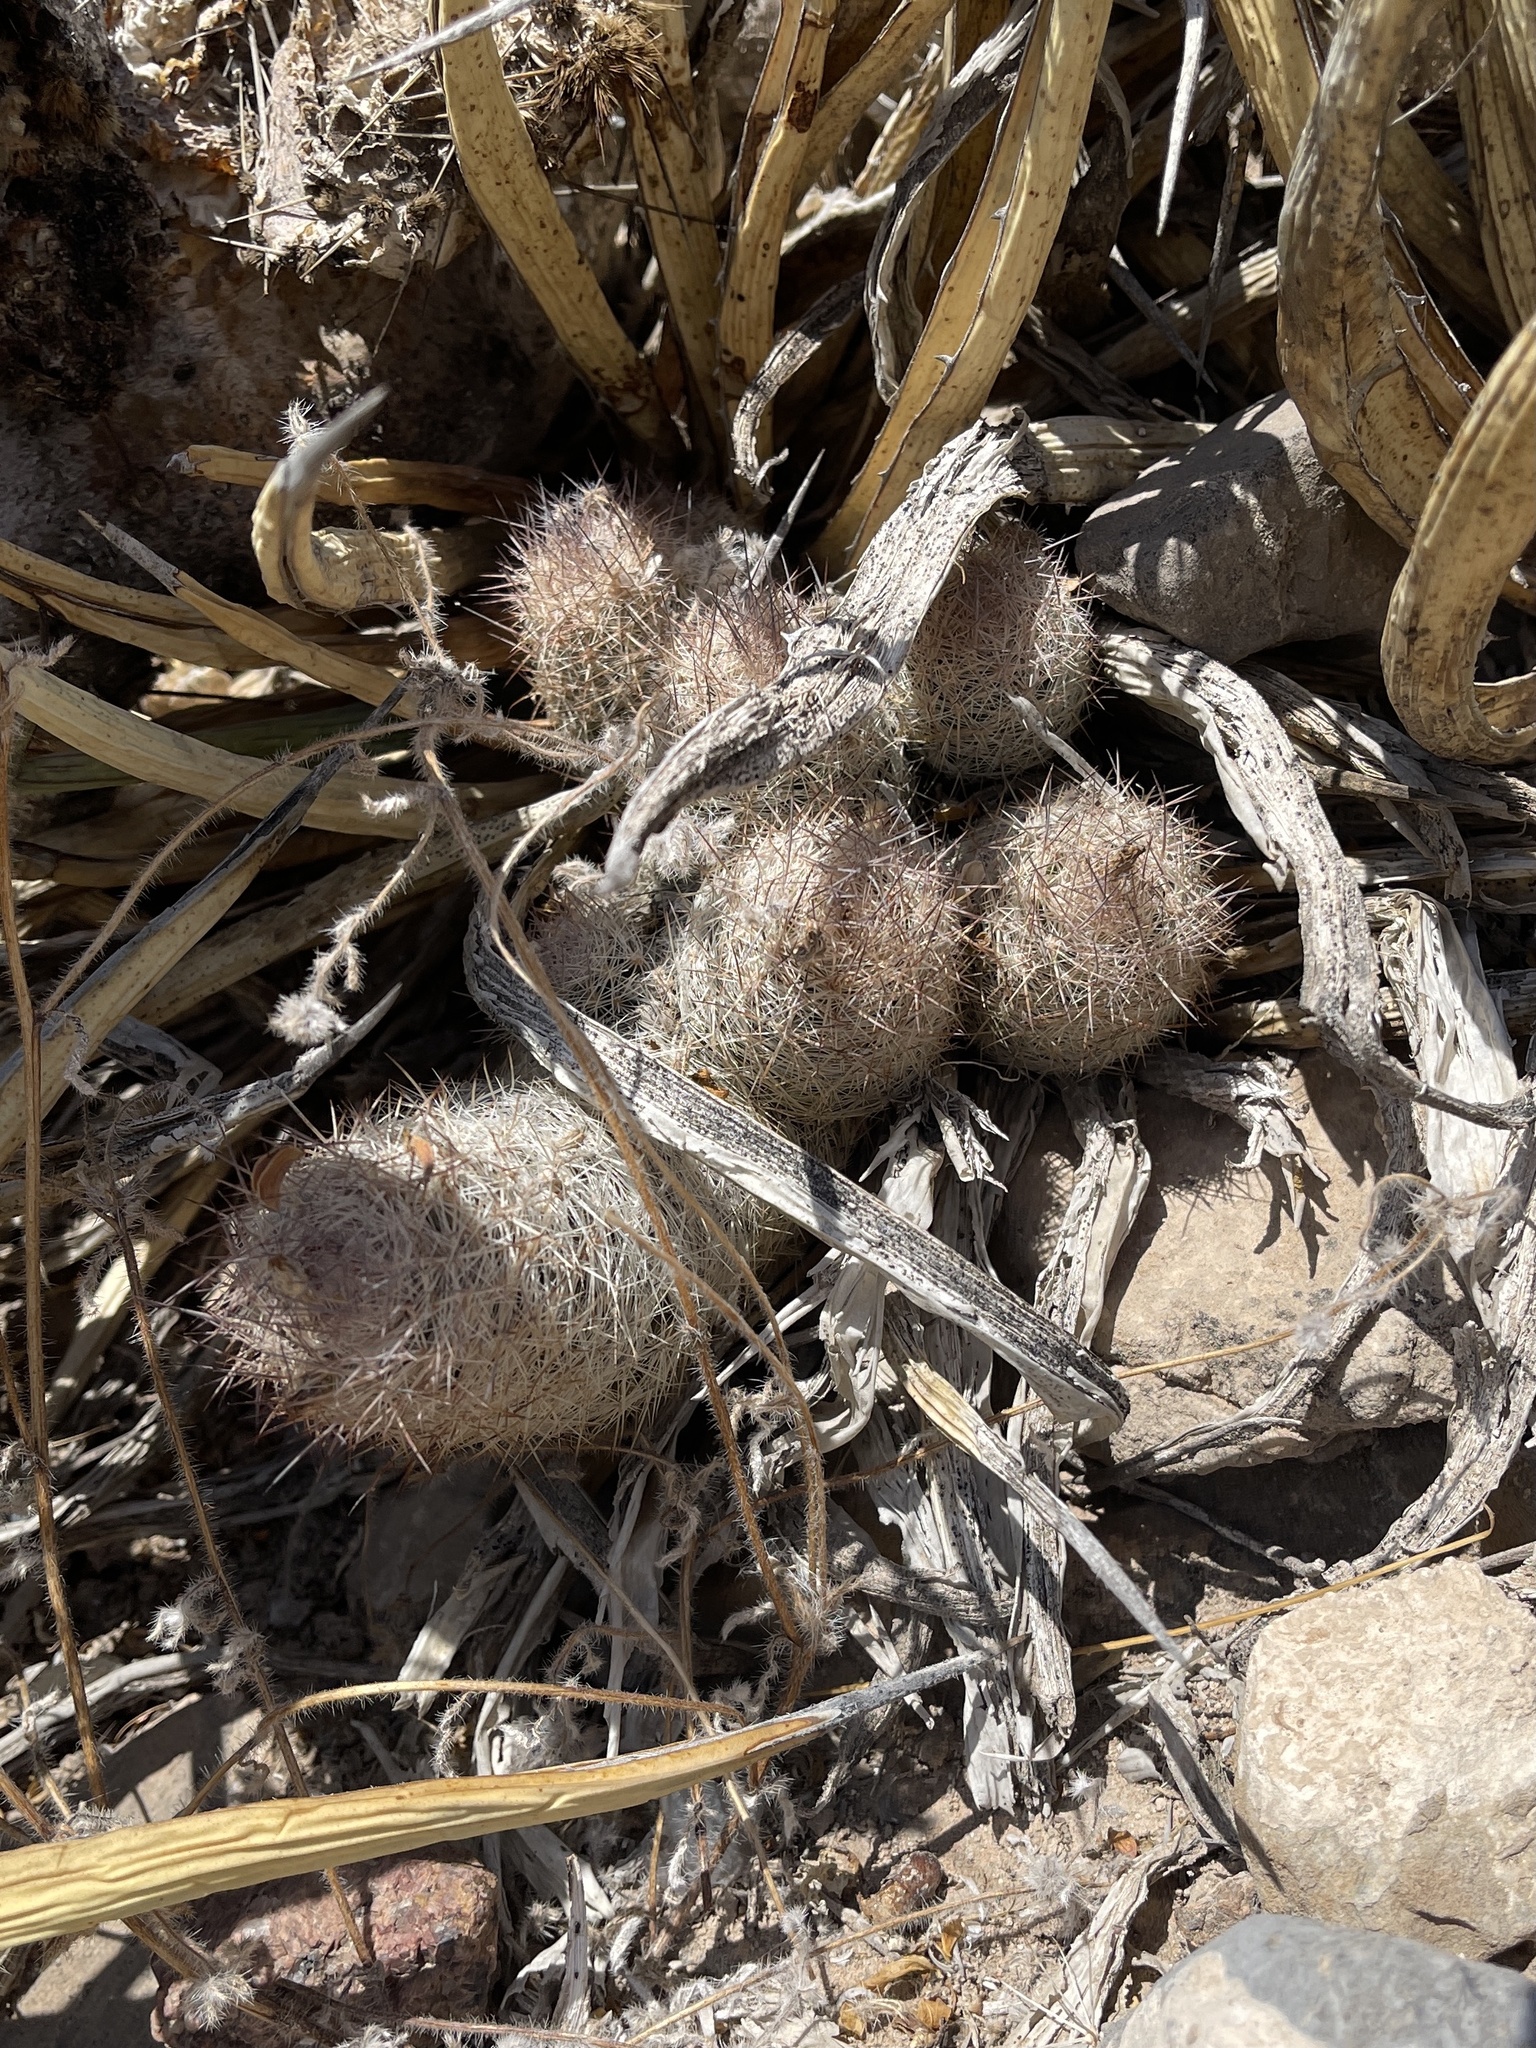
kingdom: Plantae
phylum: Tracheophyta
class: Magnoliopsida
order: Caryophyllales
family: Cactaceae
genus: Pelecyphora
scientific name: Pelecyphora tuberculosa
